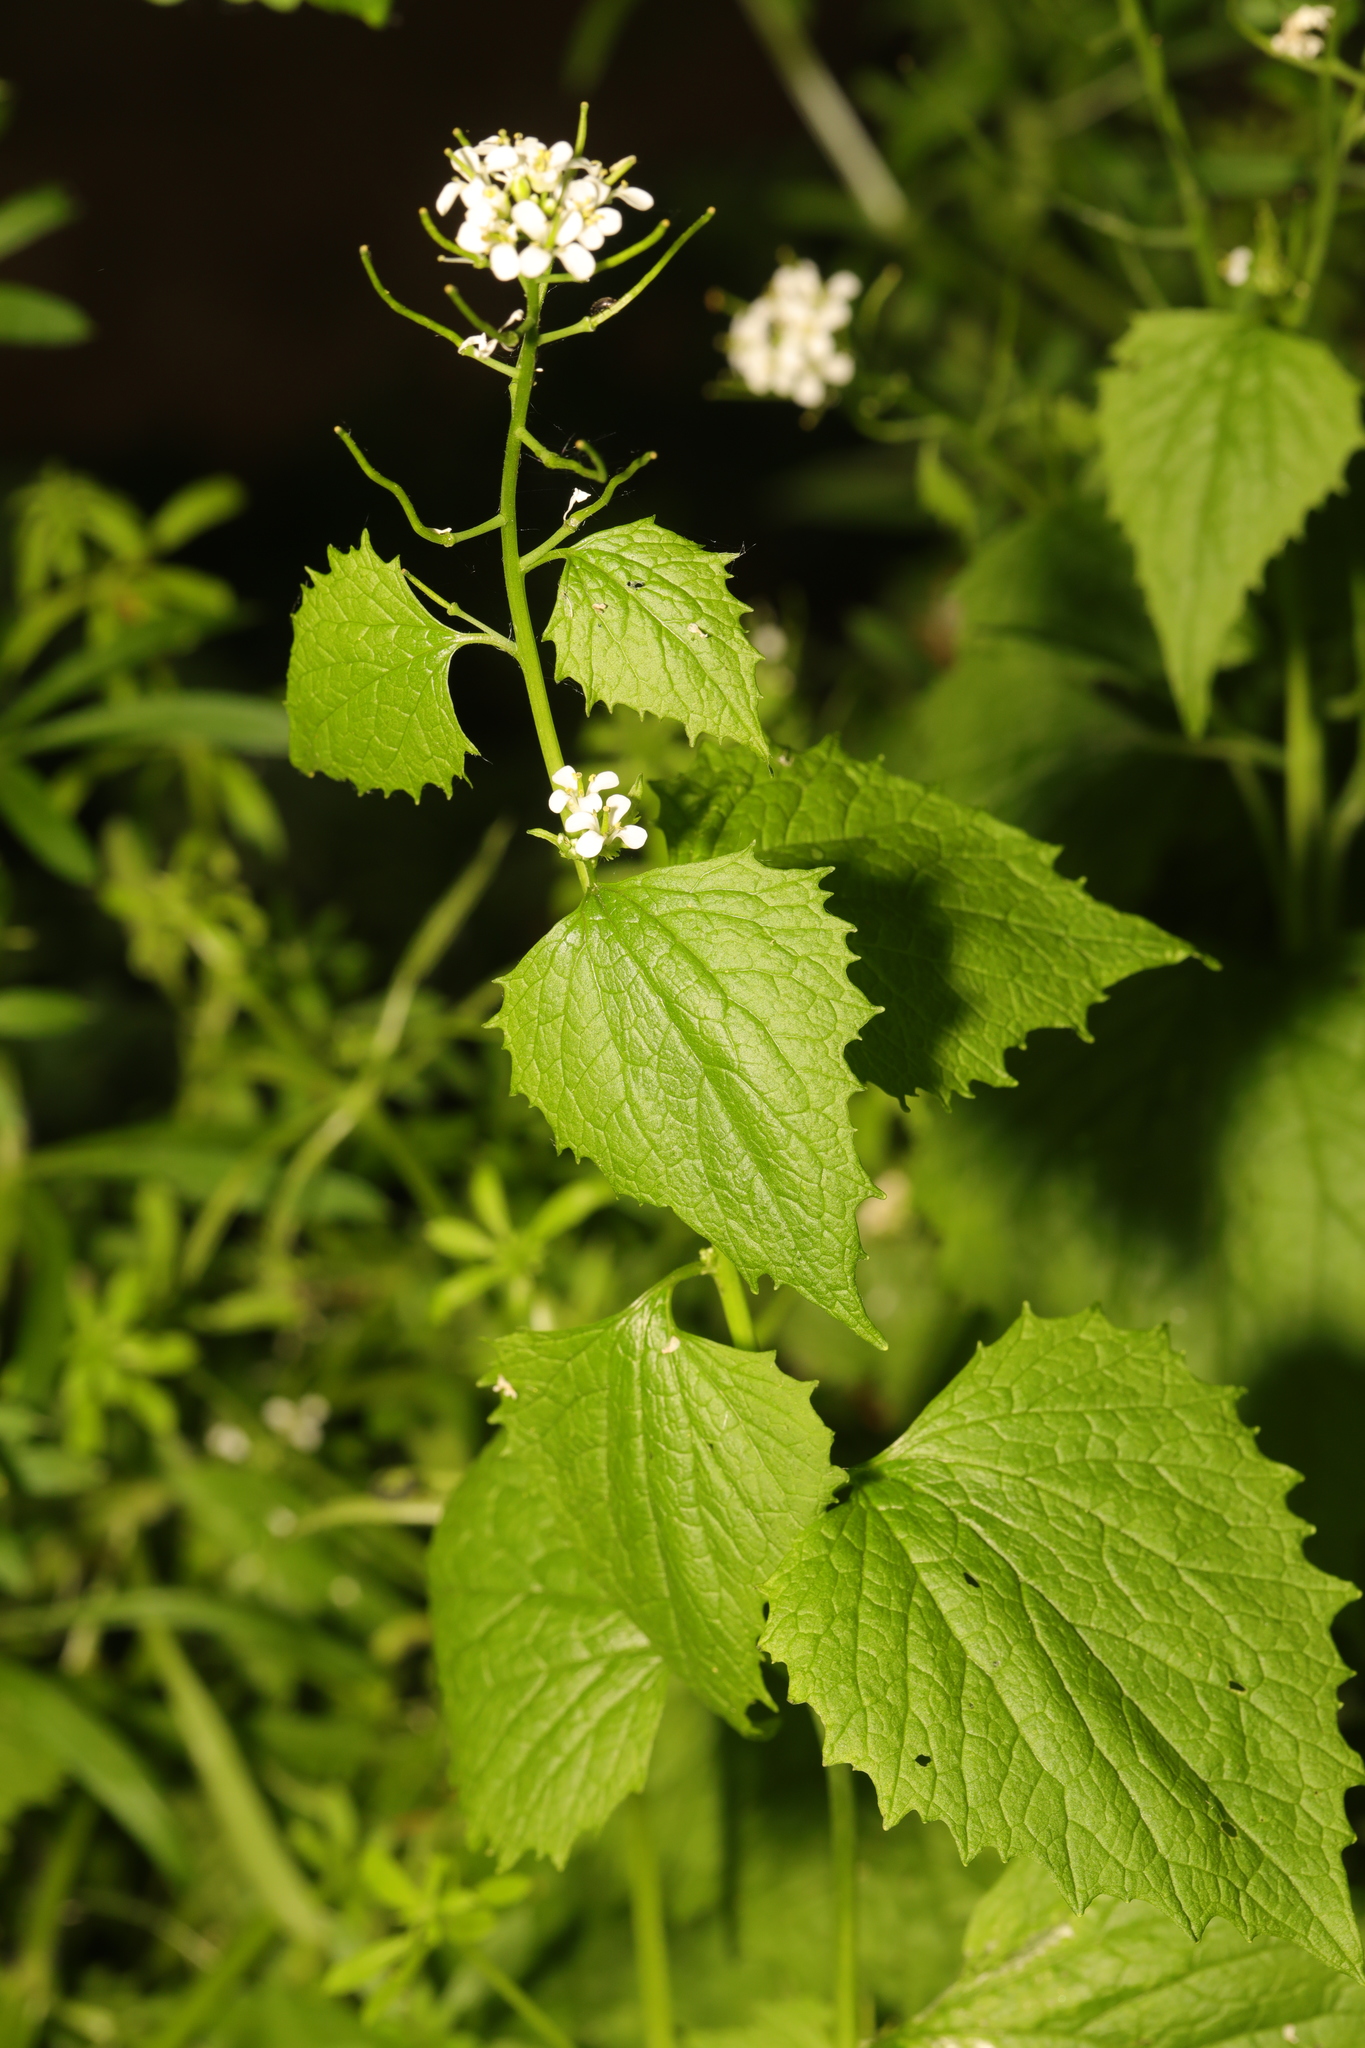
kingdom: Plantae
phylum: Tracheophyta
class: Magnoliopsida
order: Brassicales
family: Brassicaceae
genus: Alliaria
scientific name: Alliaria petiolata
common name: Garlic mustard
